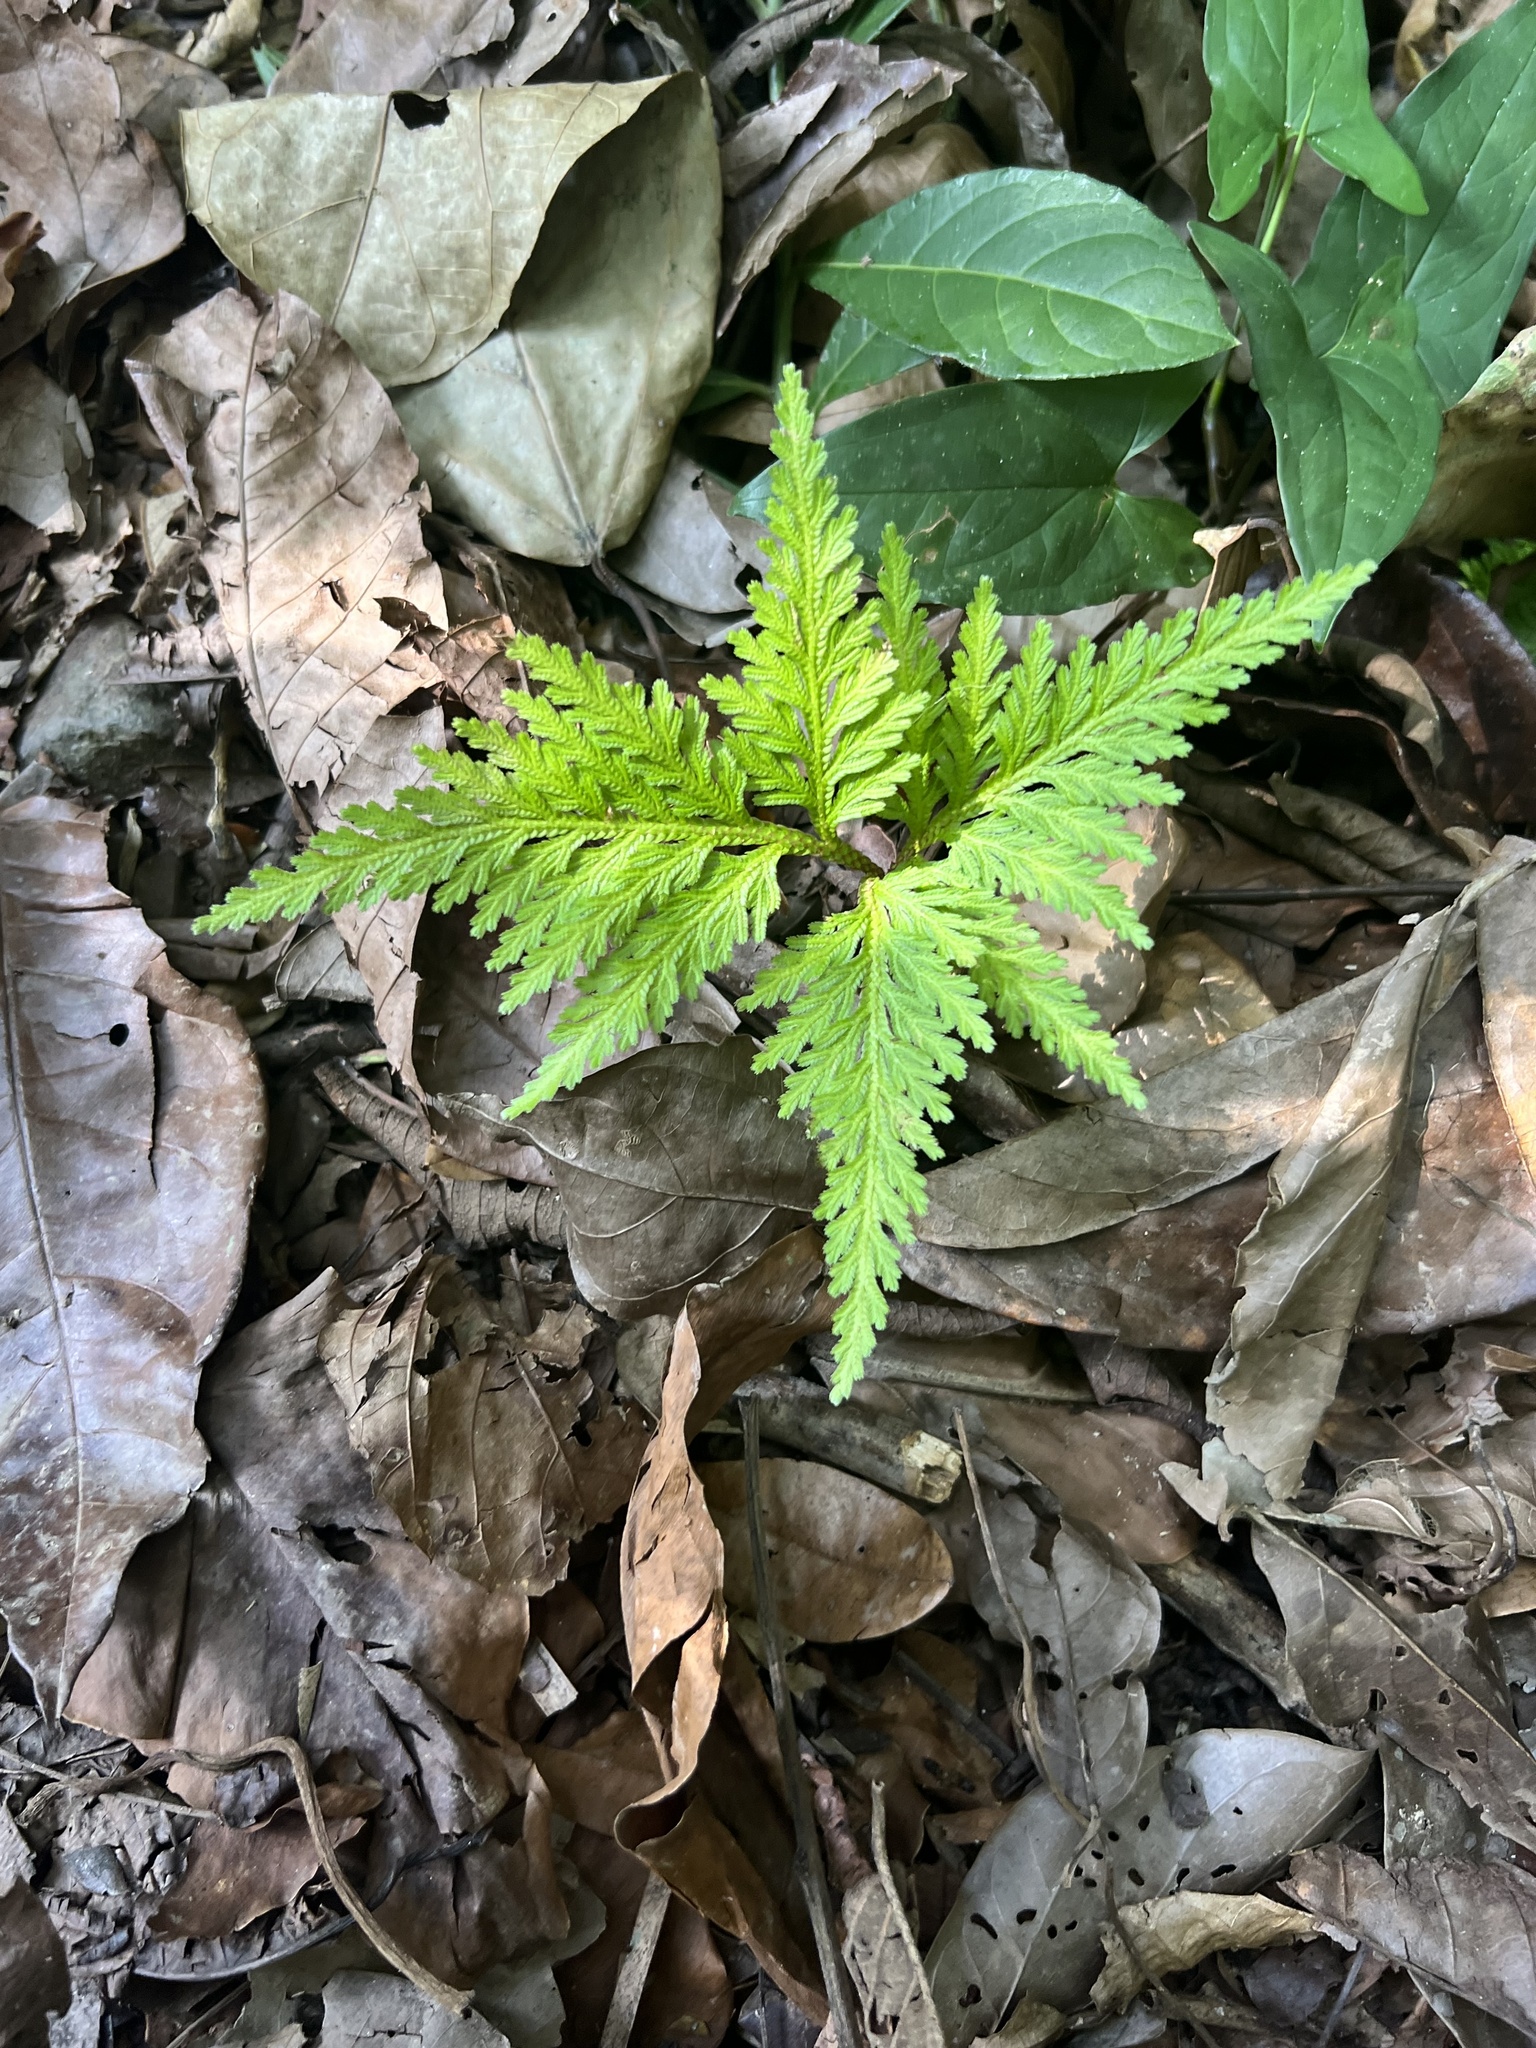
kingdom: Plantae
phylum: Tracheophyta
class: Lycopodiopsida
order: Selaginellales
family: Selaginellaceae
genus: Selaginella
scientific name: Selaginella
